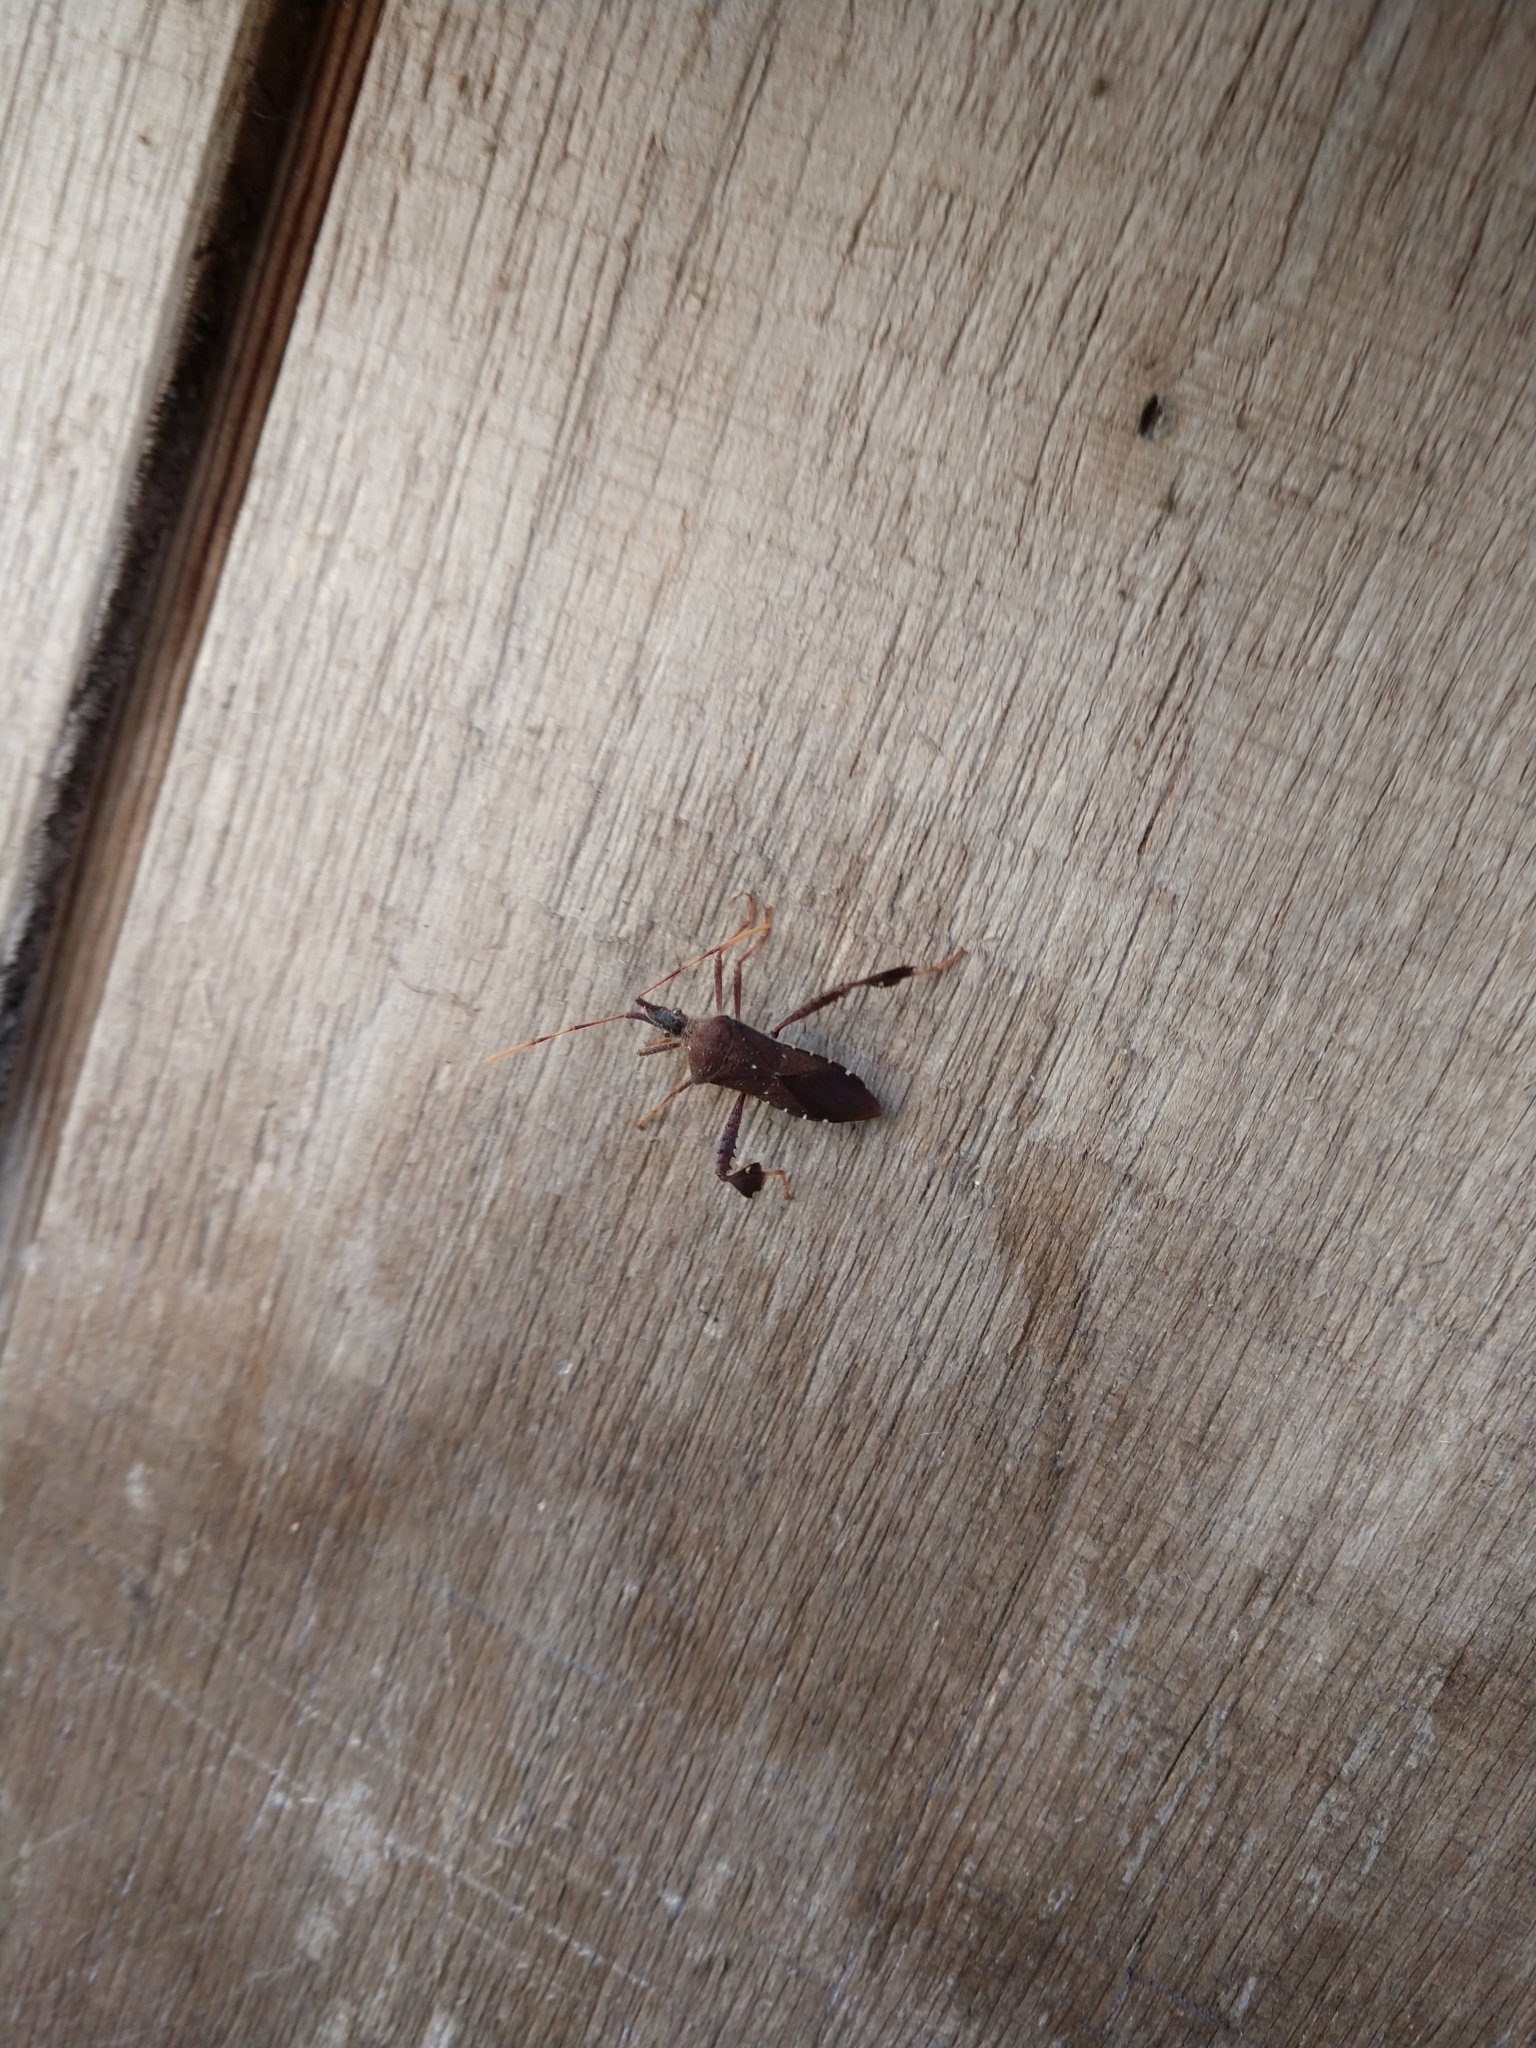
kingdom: Animalia
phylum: Arthropoda
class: Insecta
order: Hemiptera
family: Coreidae
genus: Leptoglossus
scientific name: Leptoglossus oppositus
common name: Northern leaf-footed bug
